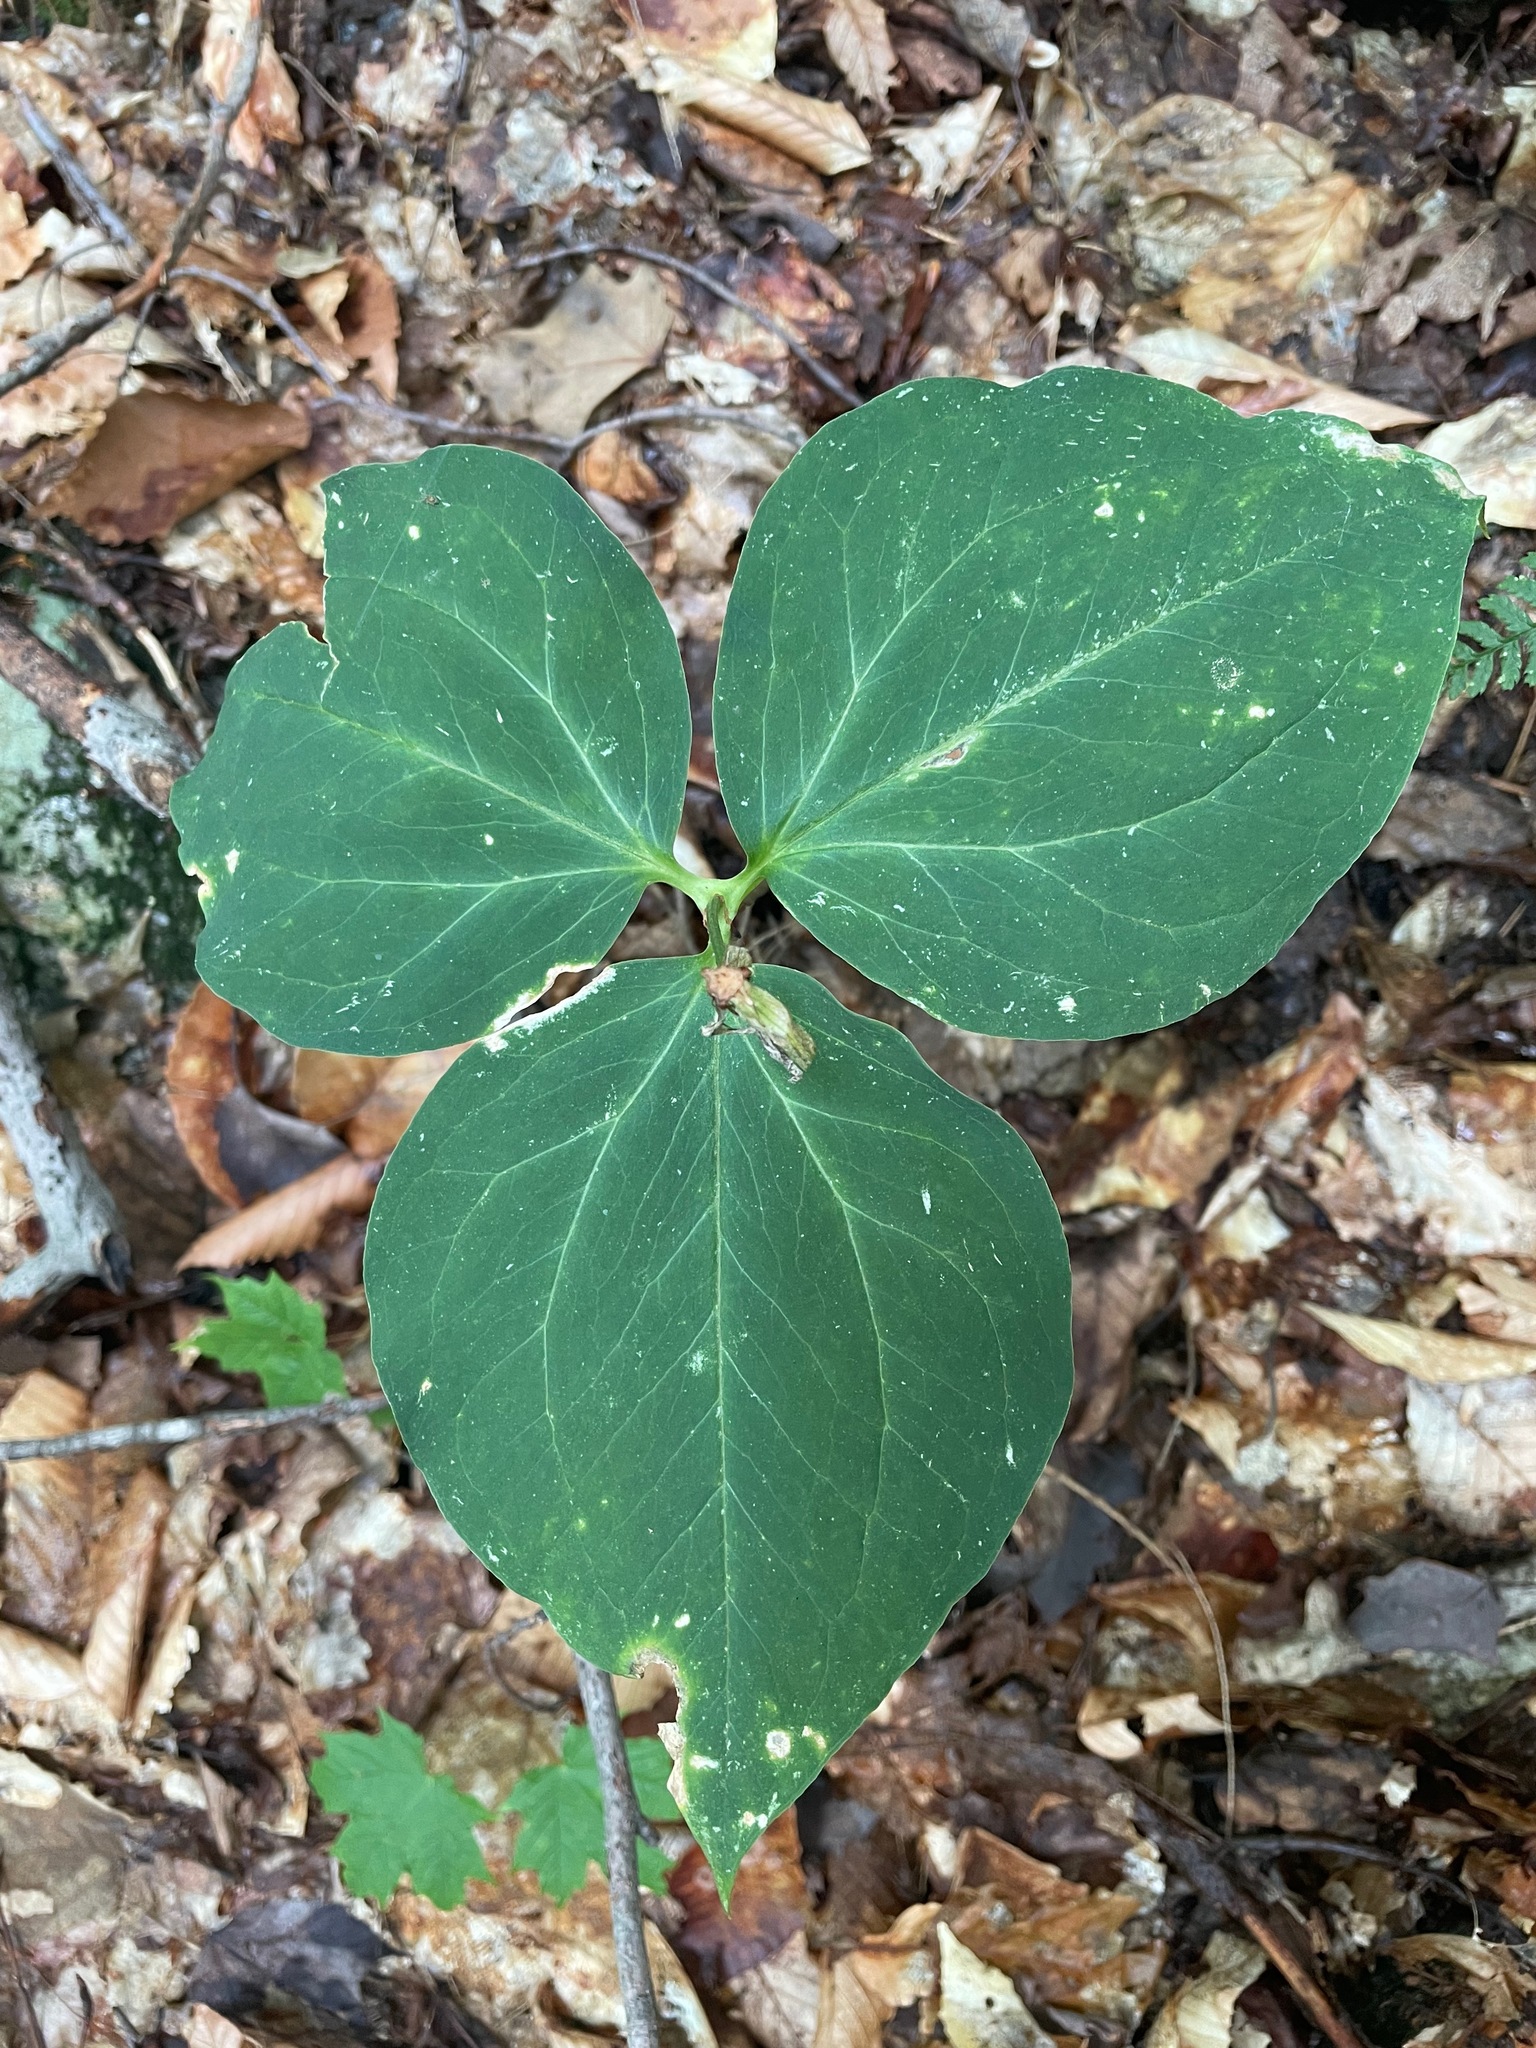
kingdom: Plantae
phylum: Tracheophyta
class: Liliopsida
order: Liliales
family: Melanthiaceae
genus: Trillium
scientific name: Trillium undulatum
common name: Paint trillium
